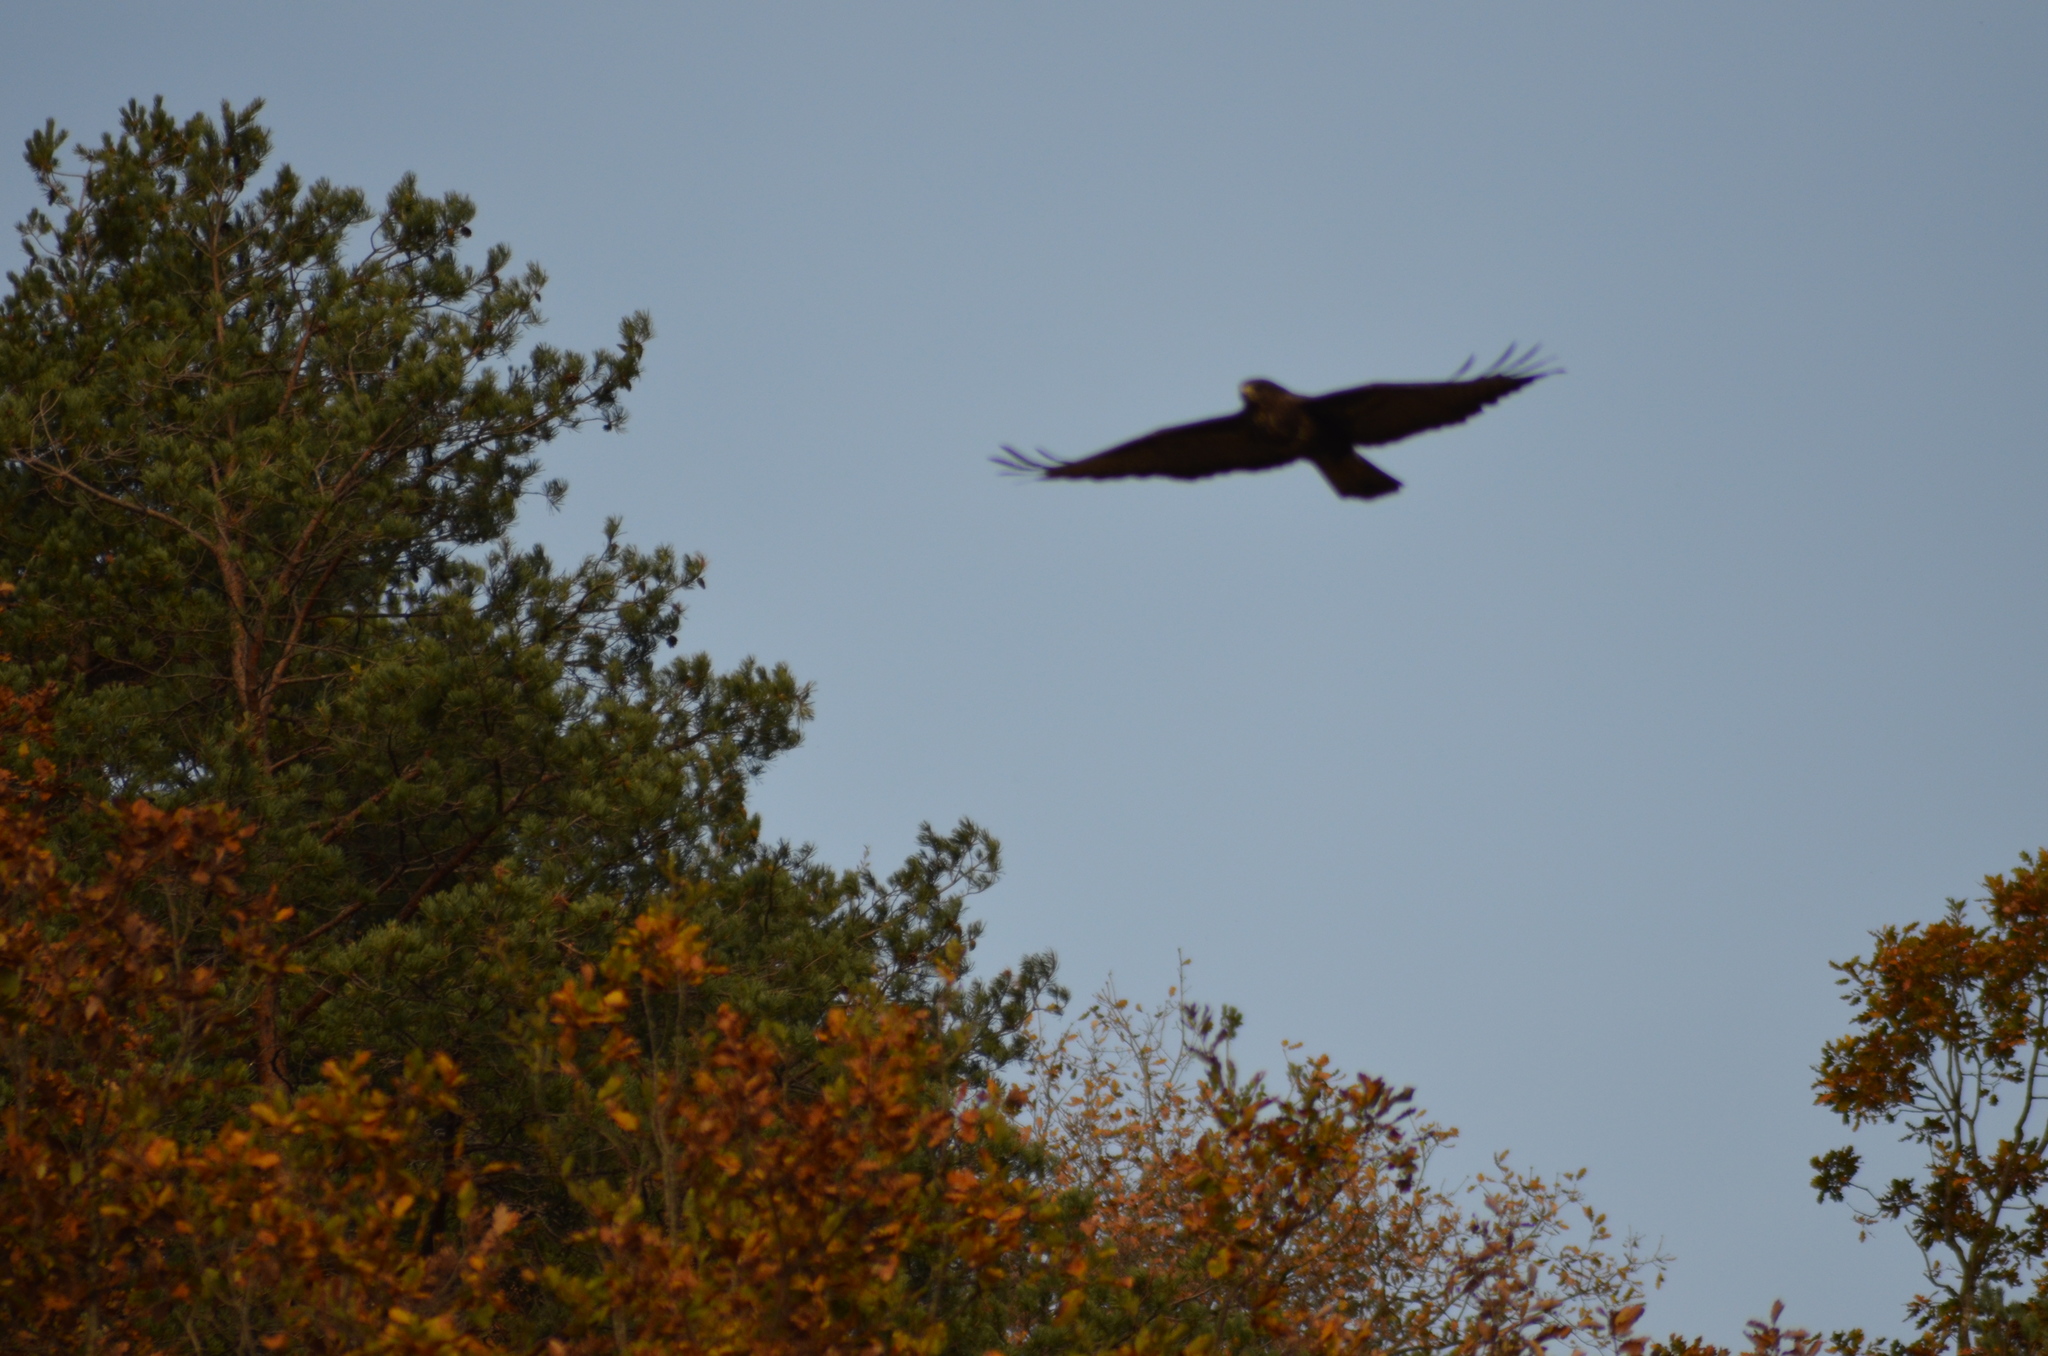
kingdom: Animalia
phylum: Chordata
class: Aves
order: Accipitriformes
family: Accipitridae
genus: Buteo
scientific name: Buteo buteo
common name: Common buzzard
